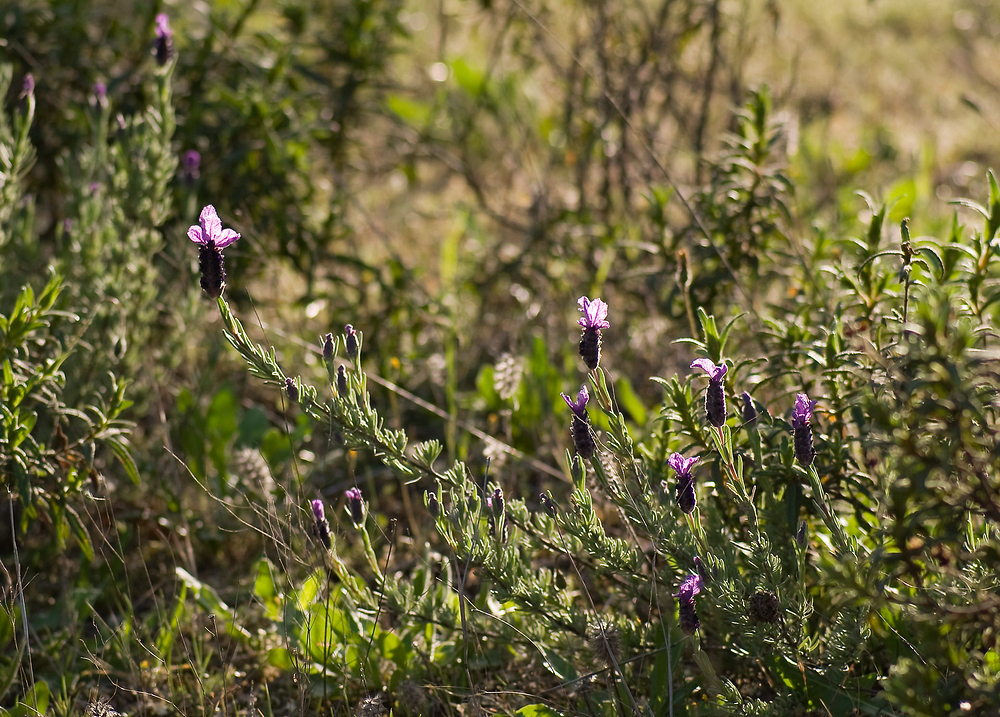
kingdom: Plantae
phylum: Tracheophyta
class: Magnoliopsida
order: Lamiales
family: Lamiaceae
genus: Lavandula
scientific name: Lavandula stoechas
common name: French lavender
